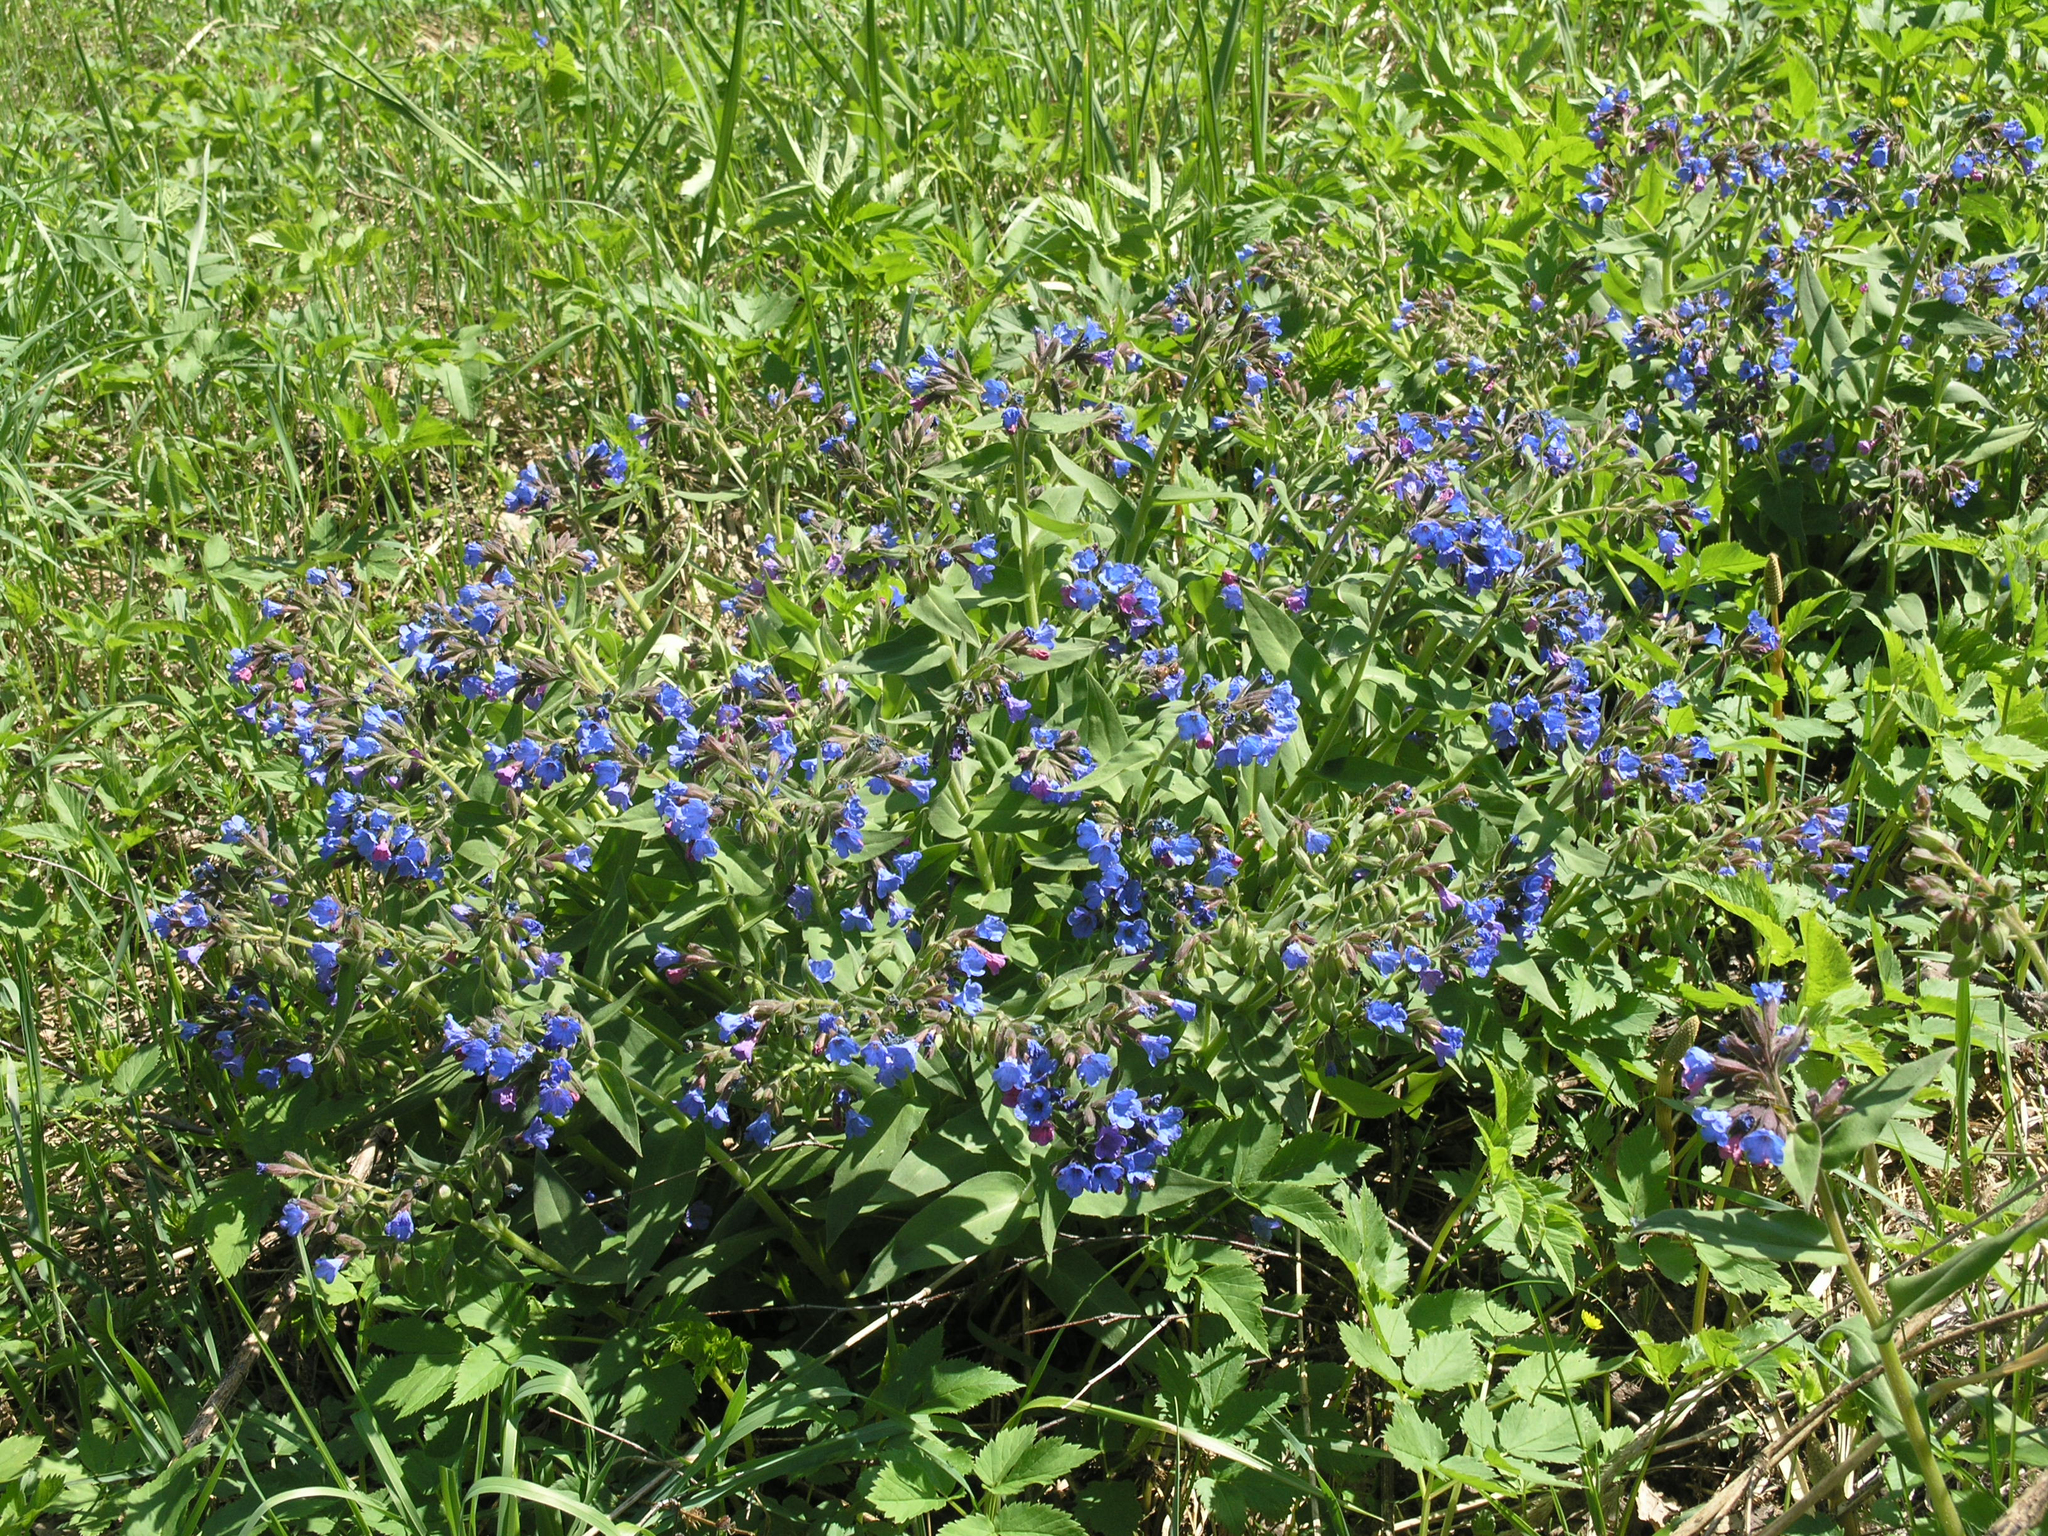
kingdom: Plantae
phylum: Tracheophyta
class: Magnoliopsida
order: Boraginales
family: Boraginaceae
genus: Pulmonaria
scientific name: Pulmonaria mollis
